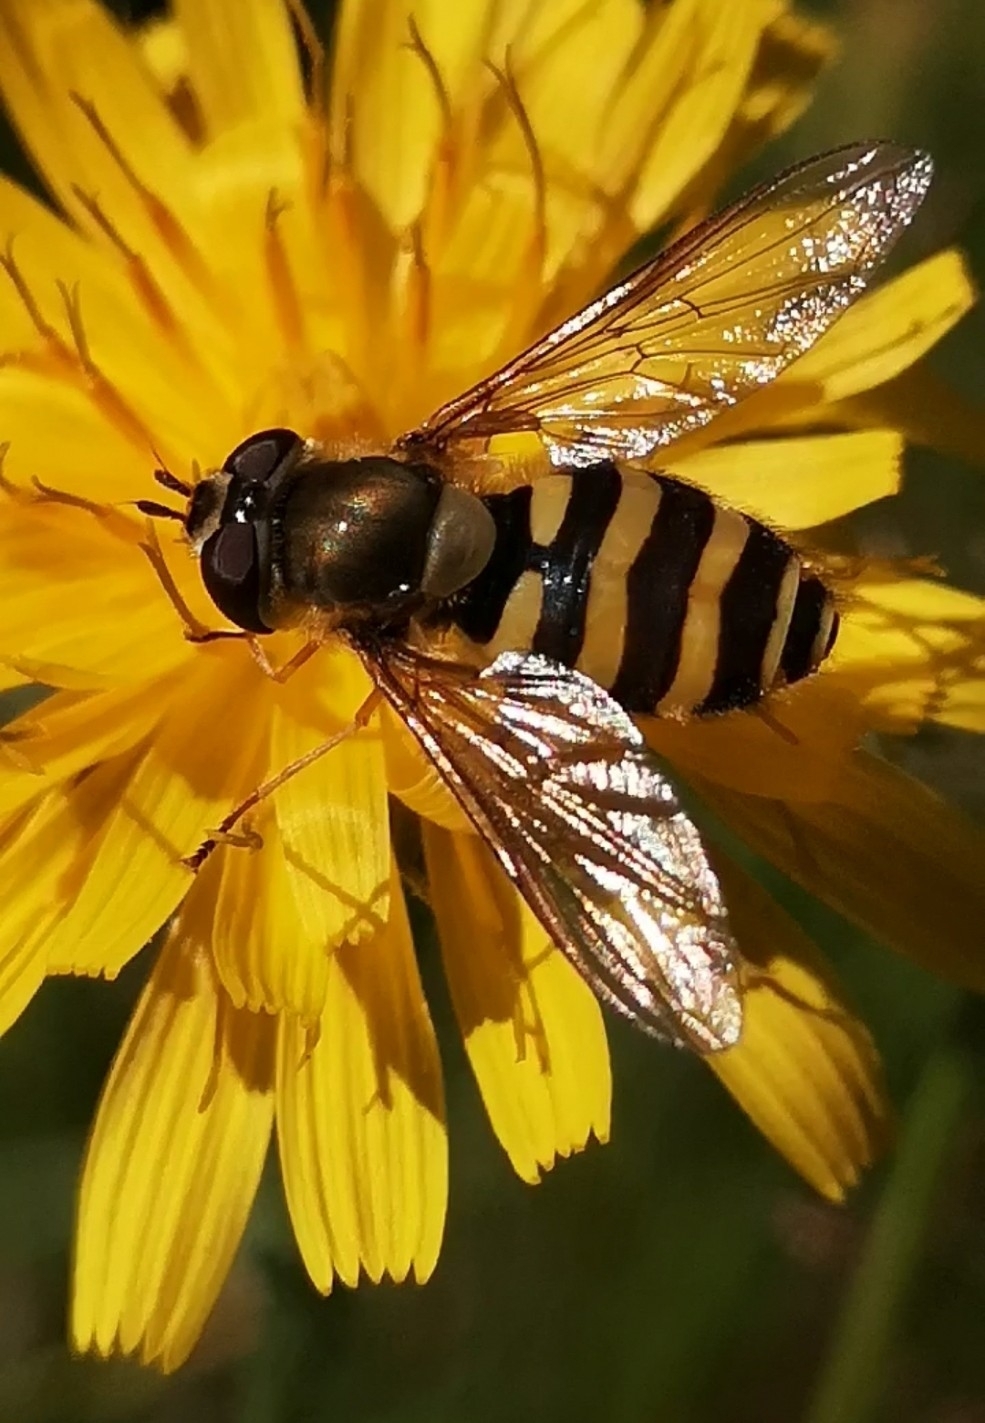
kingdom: Animalia
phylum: Arthropoda
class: Insecta
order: Diptera
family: Syrphidae
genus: Syrphus
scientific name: Syrphus
